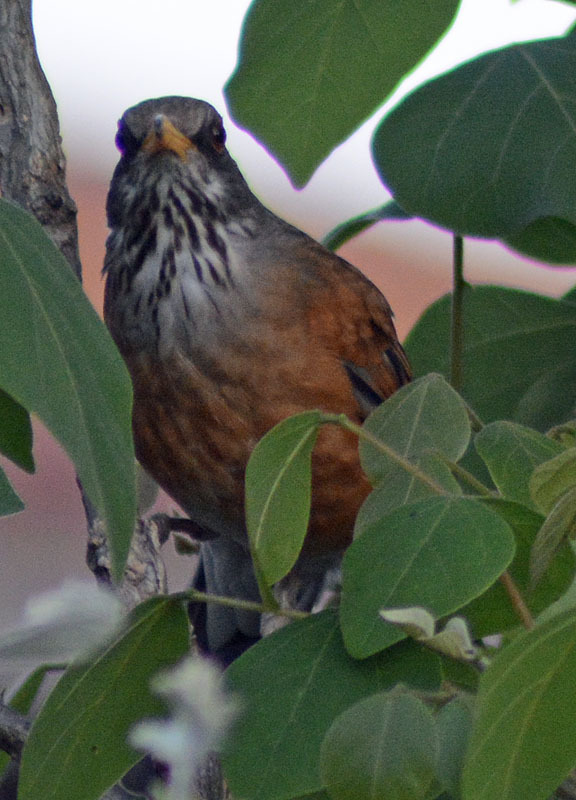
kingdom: Animalia
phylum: Chordata
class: Aves
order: Passeriformes
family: Turdidae
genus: Turdus
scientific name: Turdus rufopalliatus
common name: Rufous-backed robin
